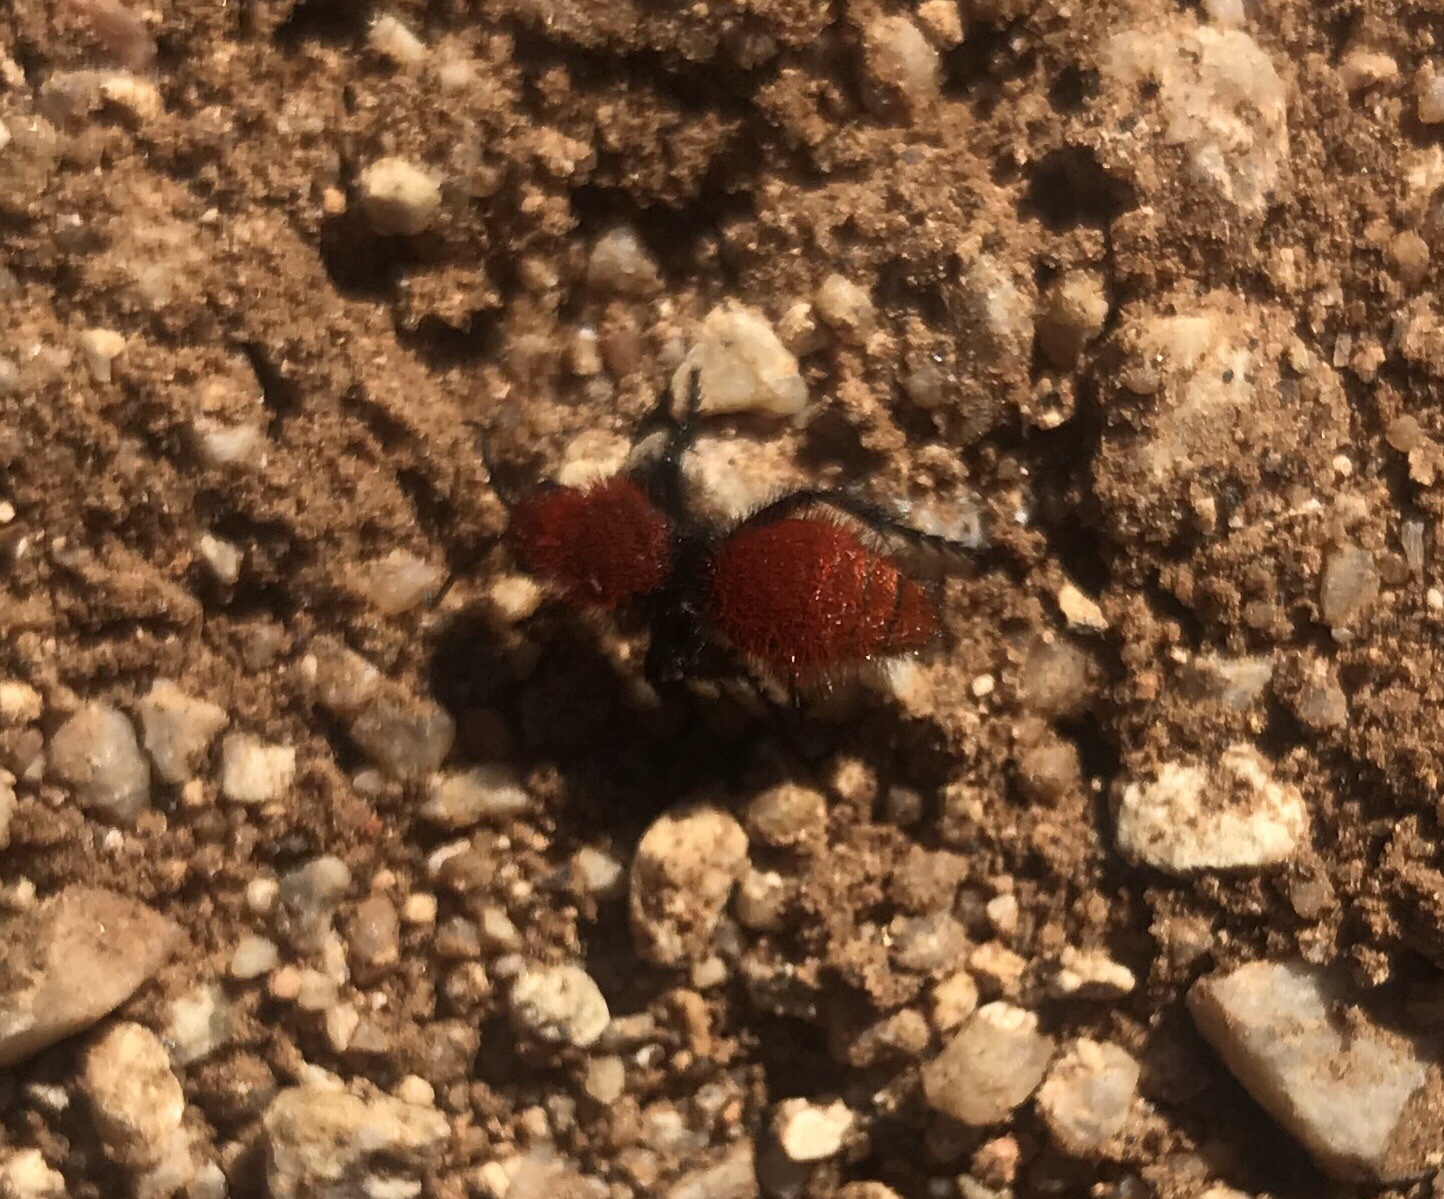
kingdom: Animalia
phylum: Arthropoda
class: Insecta
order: Hymenoptera
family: Mutillidae
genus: Dasymutilla
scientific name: Dasymutilla vestita
